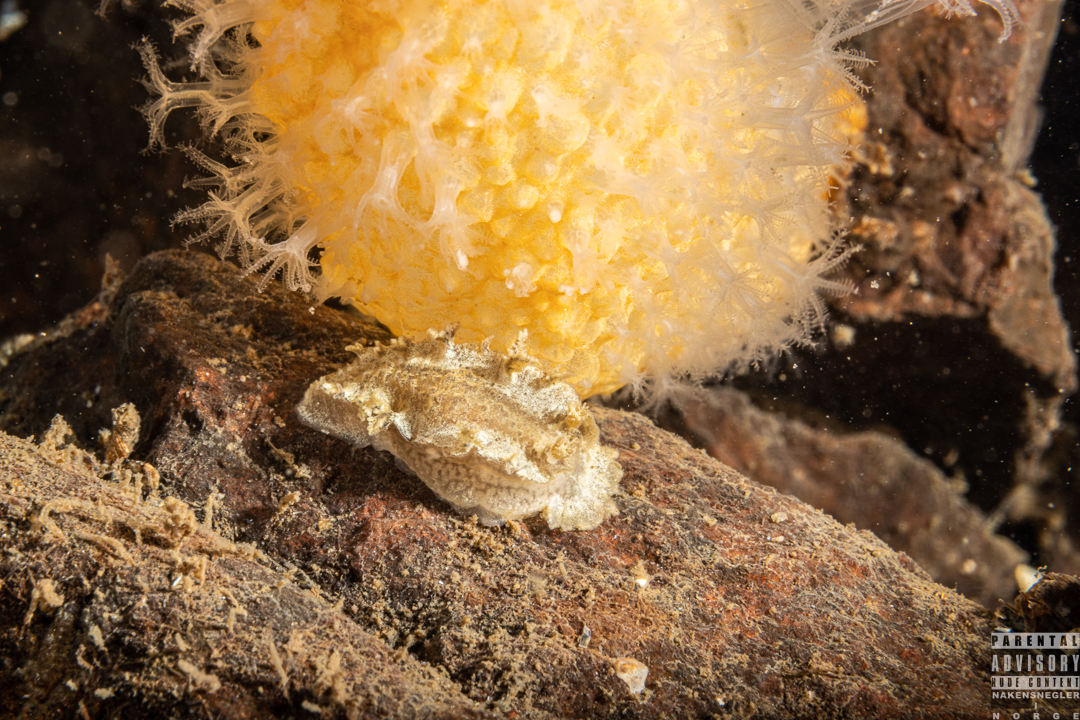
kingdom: Animalia
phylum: Mollusca
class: Gastropoda
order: Nudibranchia
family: Tritoniidae
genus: Duvaucelia
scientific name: Duvaucelia plebeia
